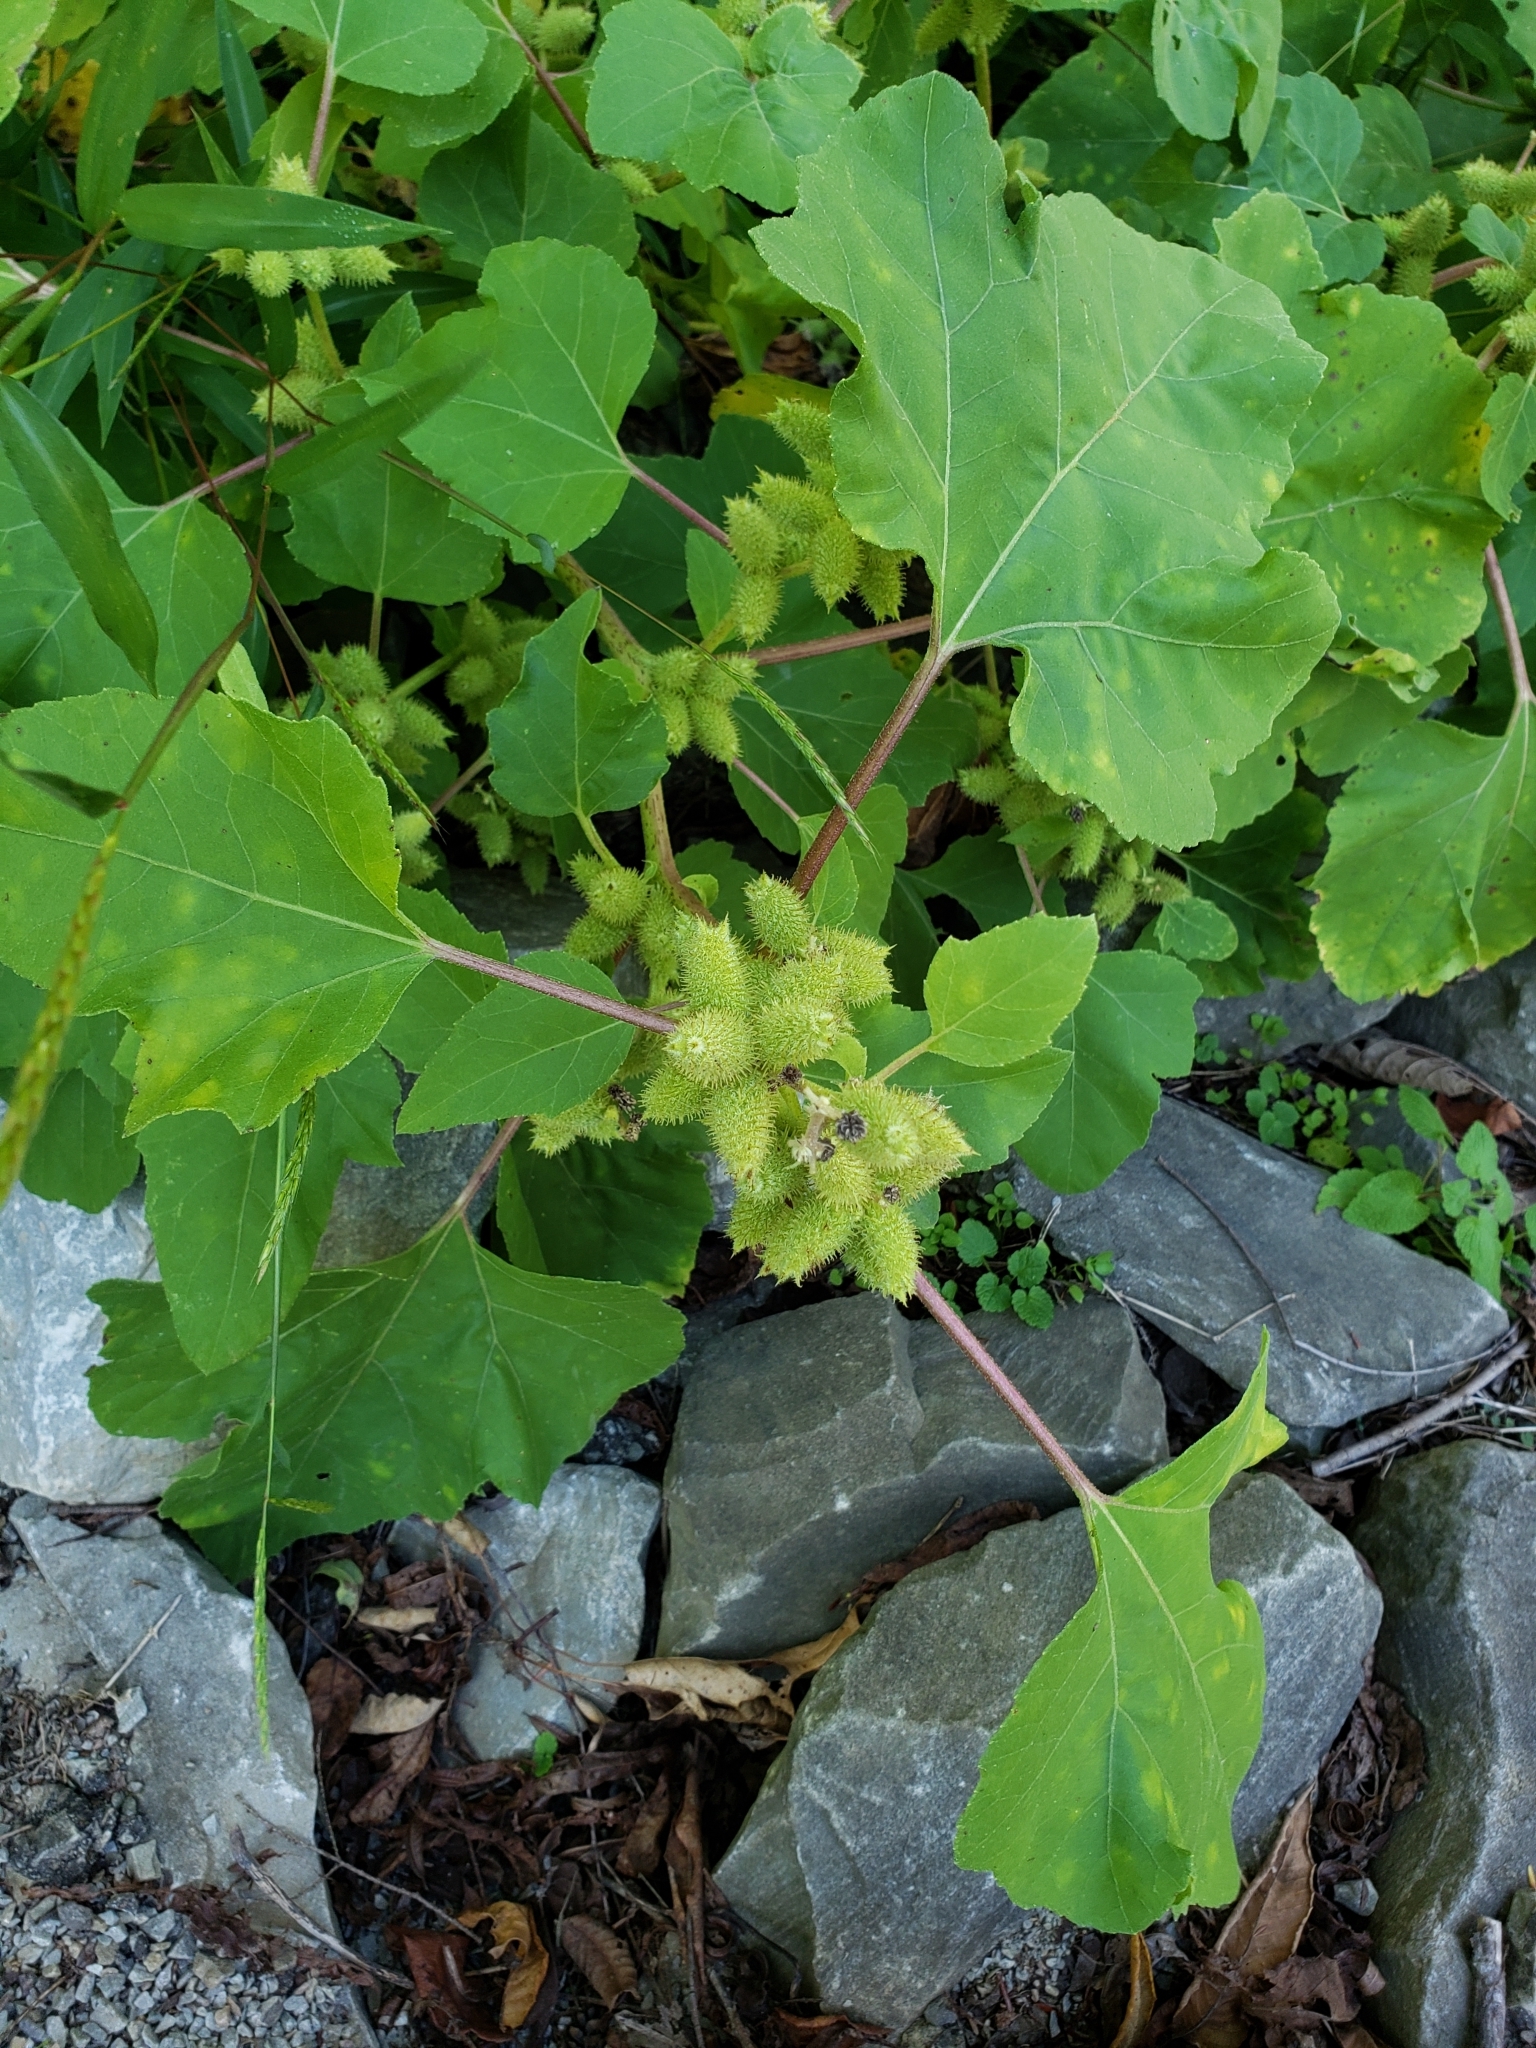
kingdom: Plantae
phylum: Tracheophyta
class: Magnoliopsida
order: Asterales
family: Asteraceae
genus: Xanthium
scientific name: Xanthium strumarium
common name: Rough cocklebur
